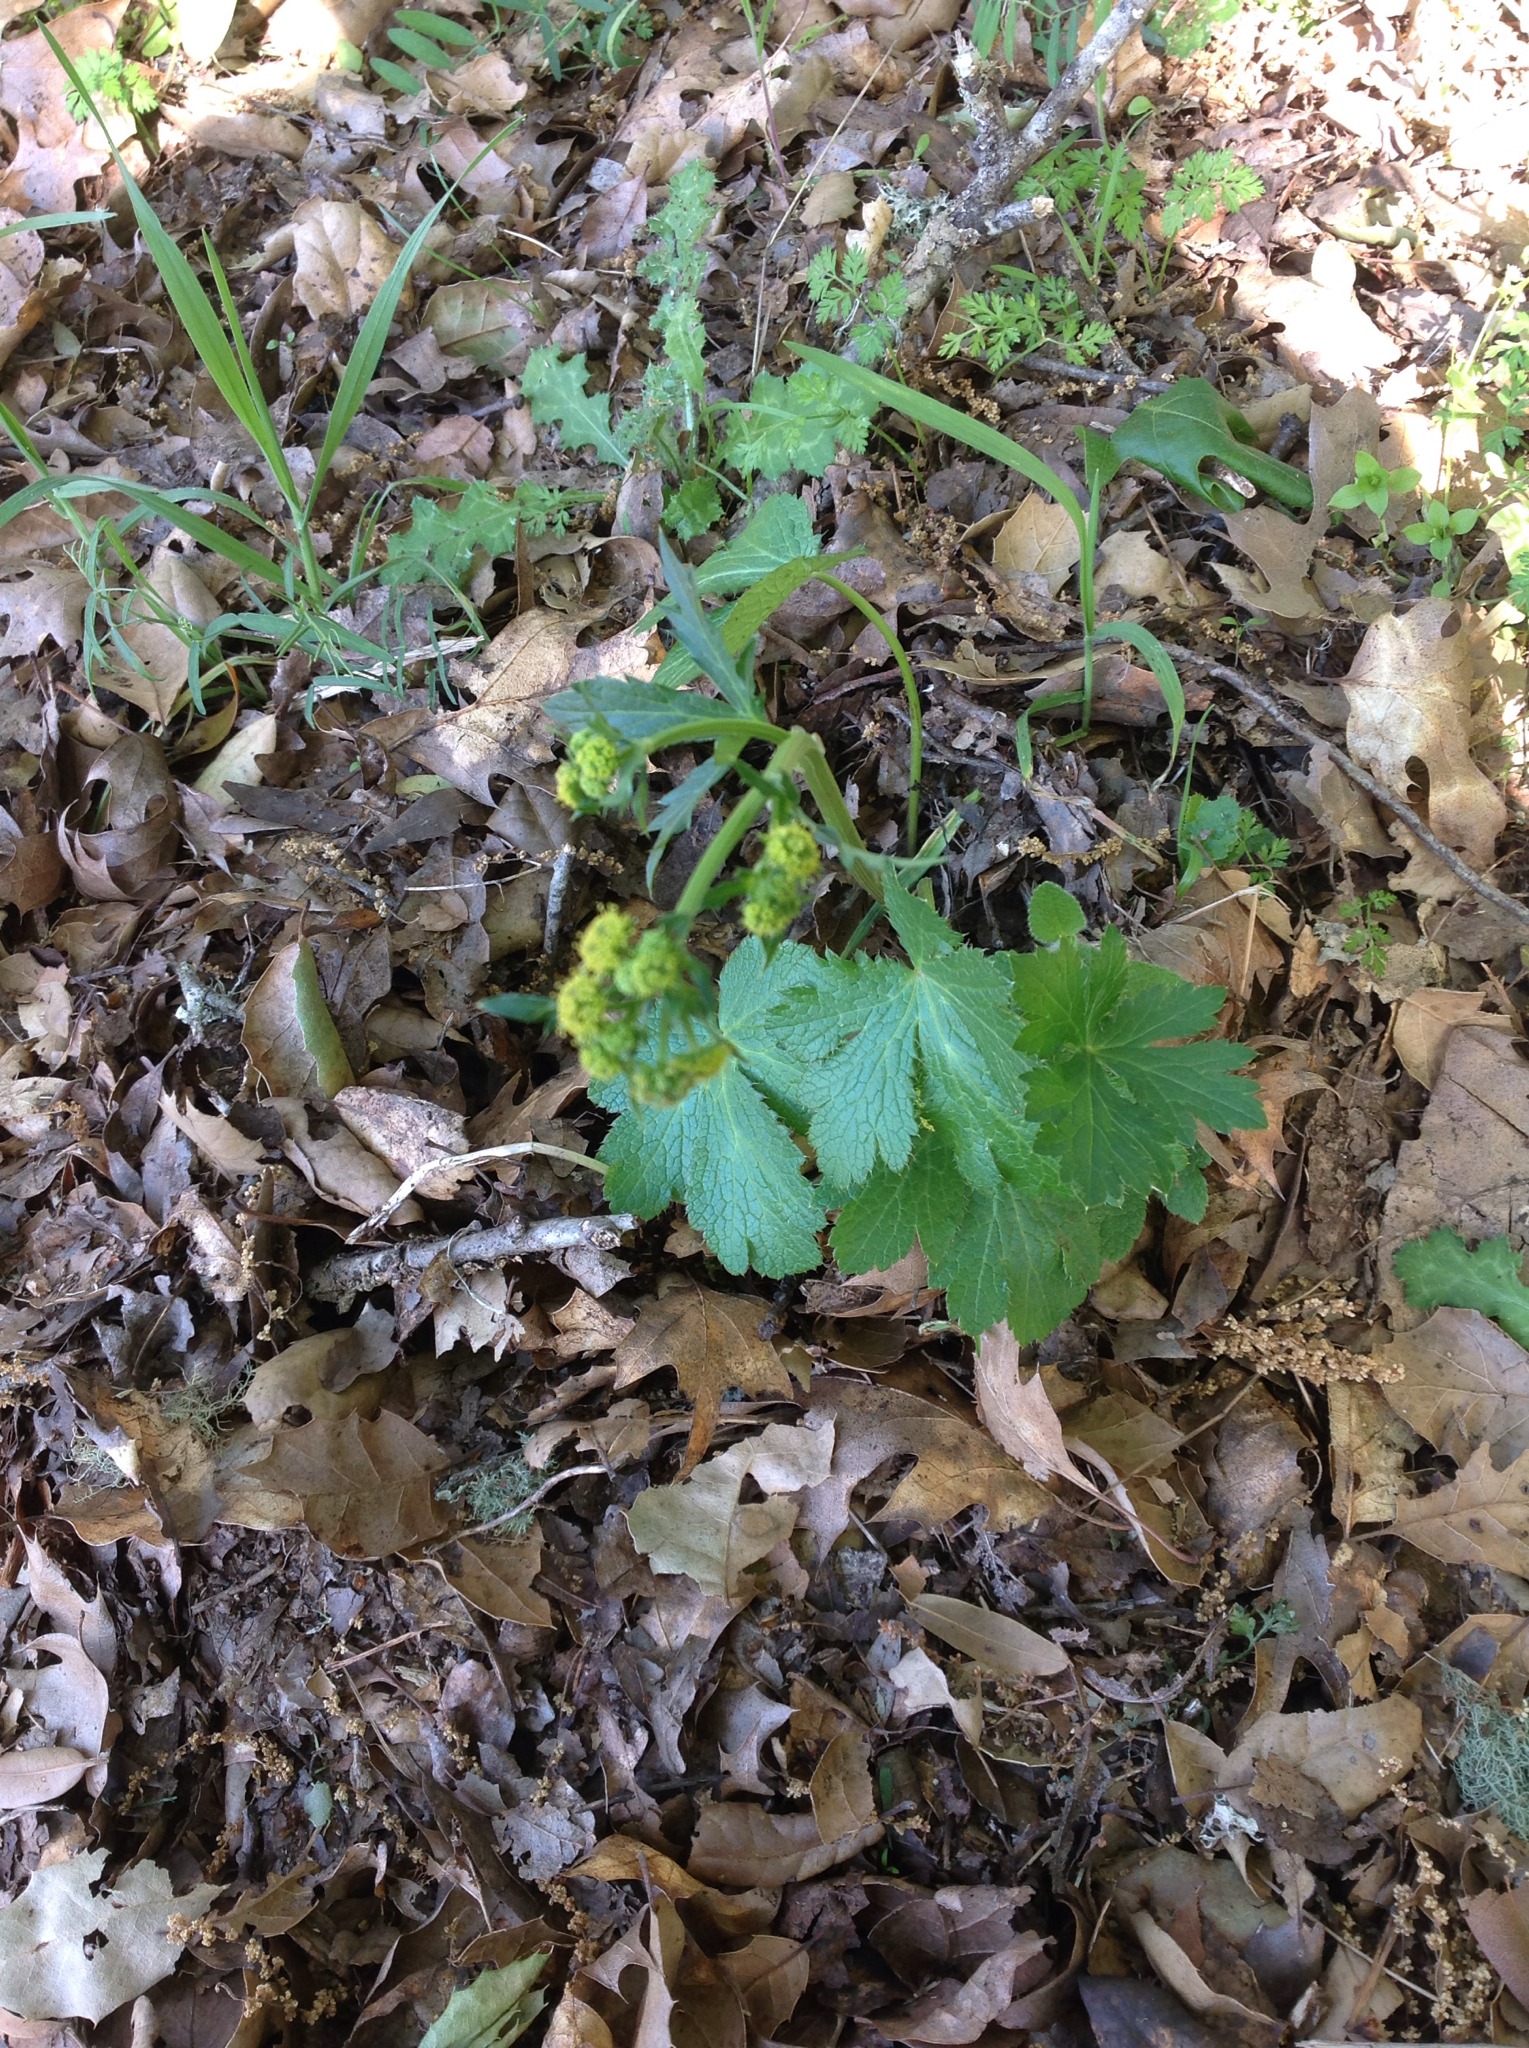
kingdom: Plantae
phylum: Tracheophyta
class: Magnoliopsida
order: Apiales
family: Apiaceae
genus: Sanicula
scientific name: Sanicula crassicaulis
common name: Western snakeroot
